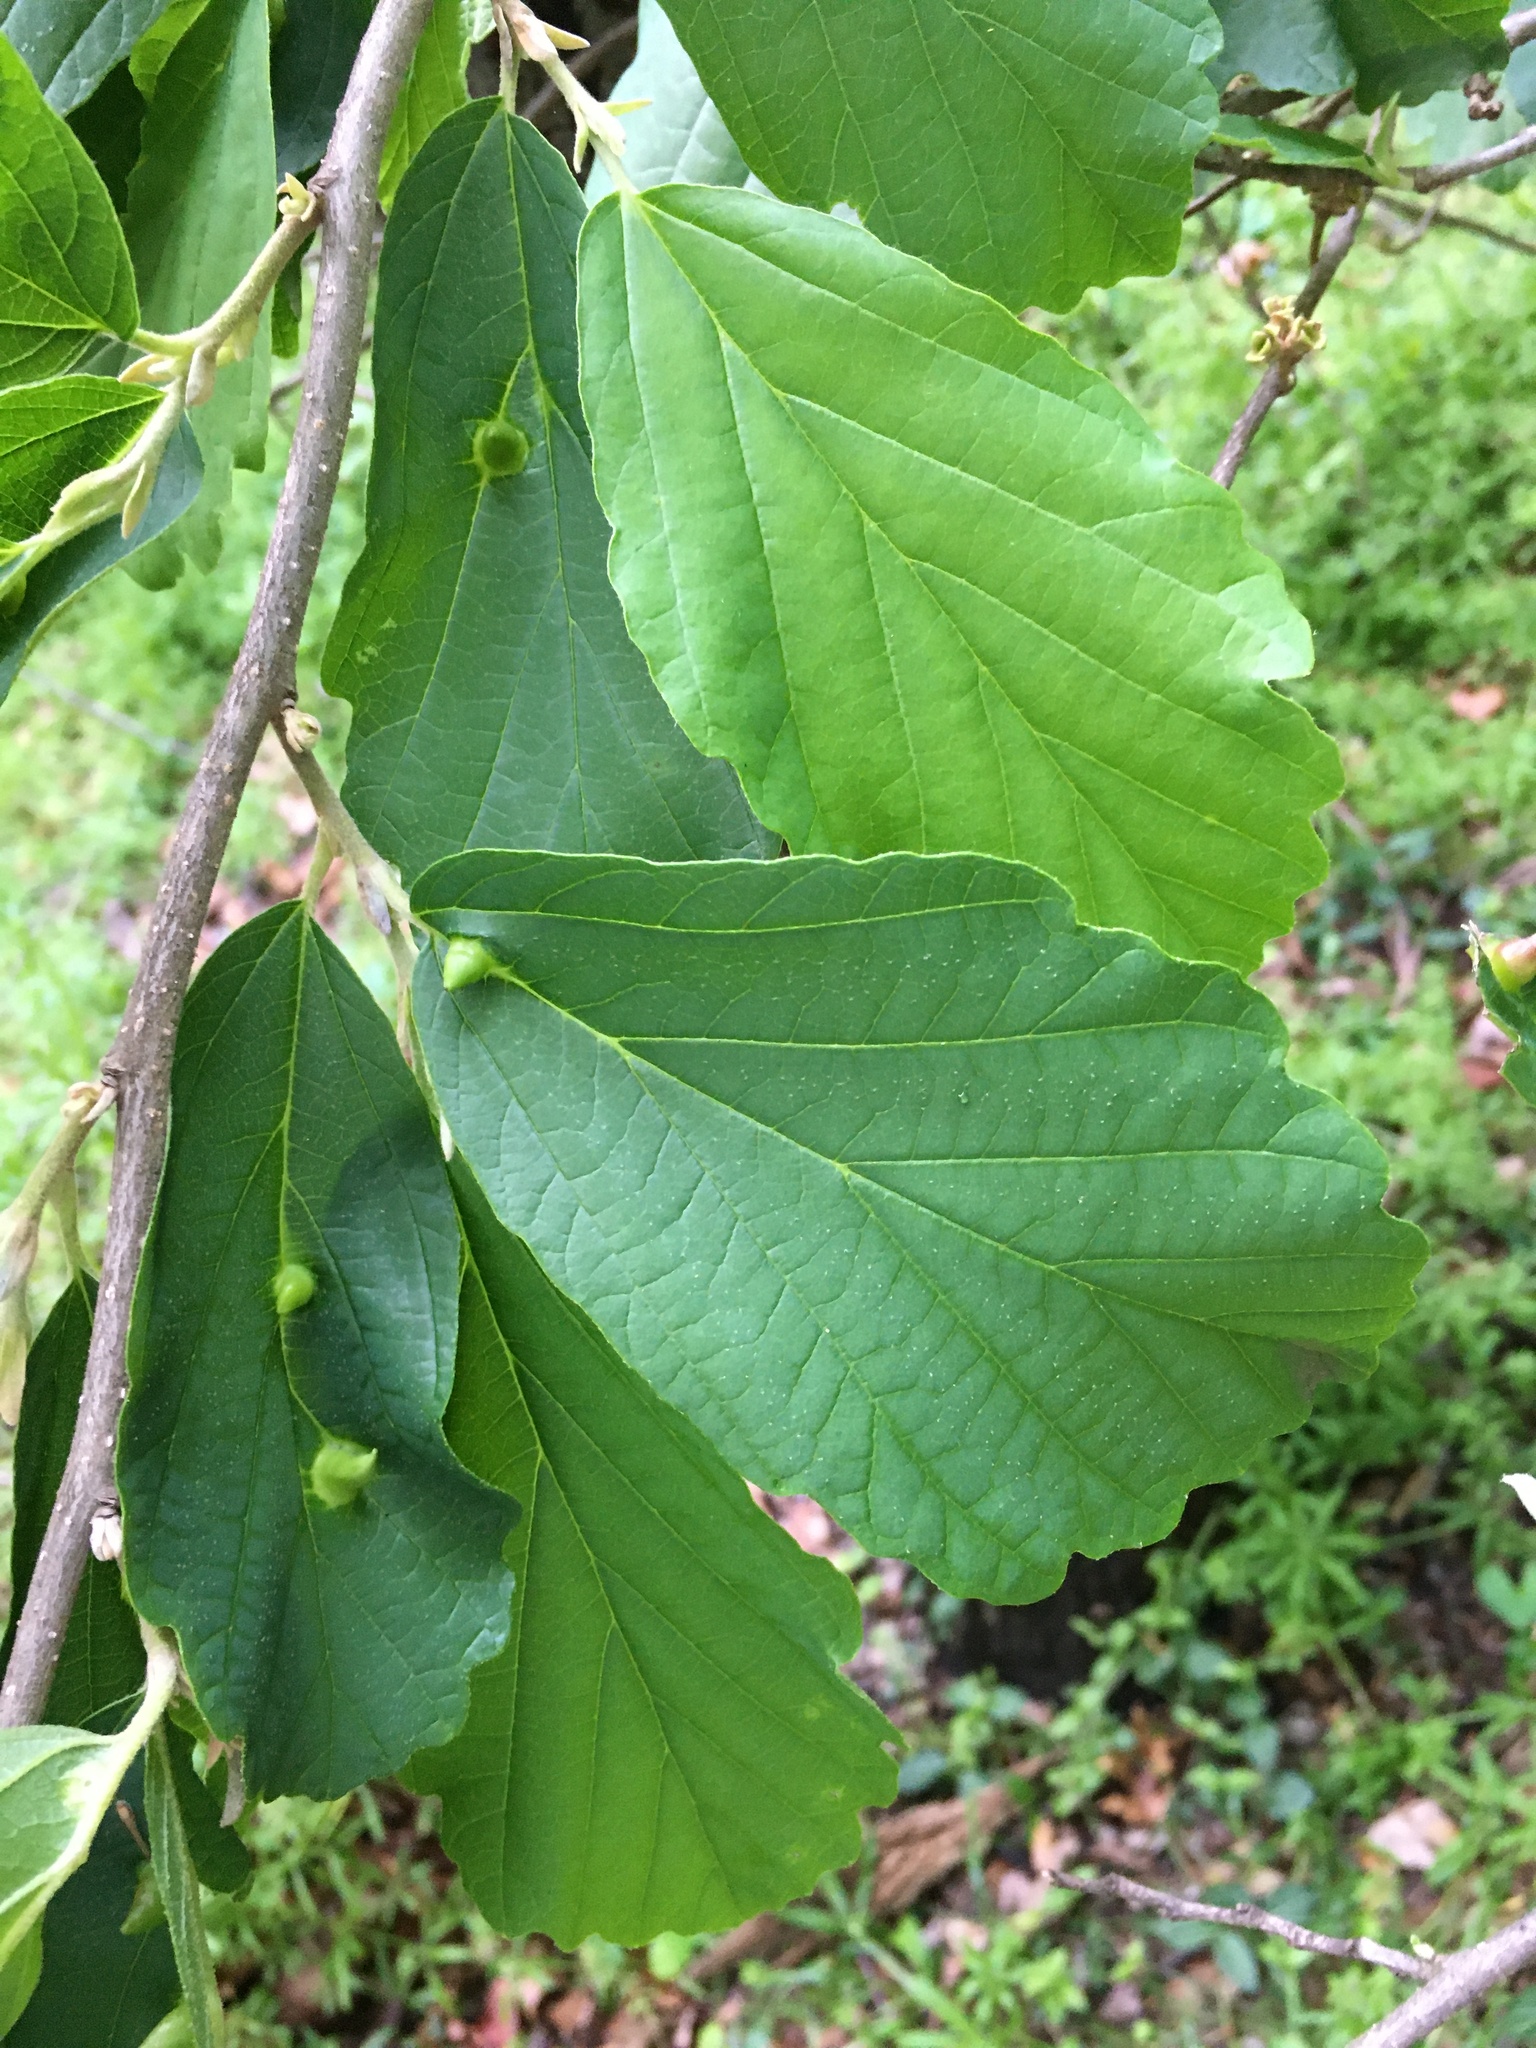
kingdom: Animalia
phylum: Arthropoda
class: Insecta
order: Hemiptera
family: Aphididae
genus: Hormaphis
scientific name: Hormaphis hamamelidis
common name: Witch-hazel cone gall aphid
